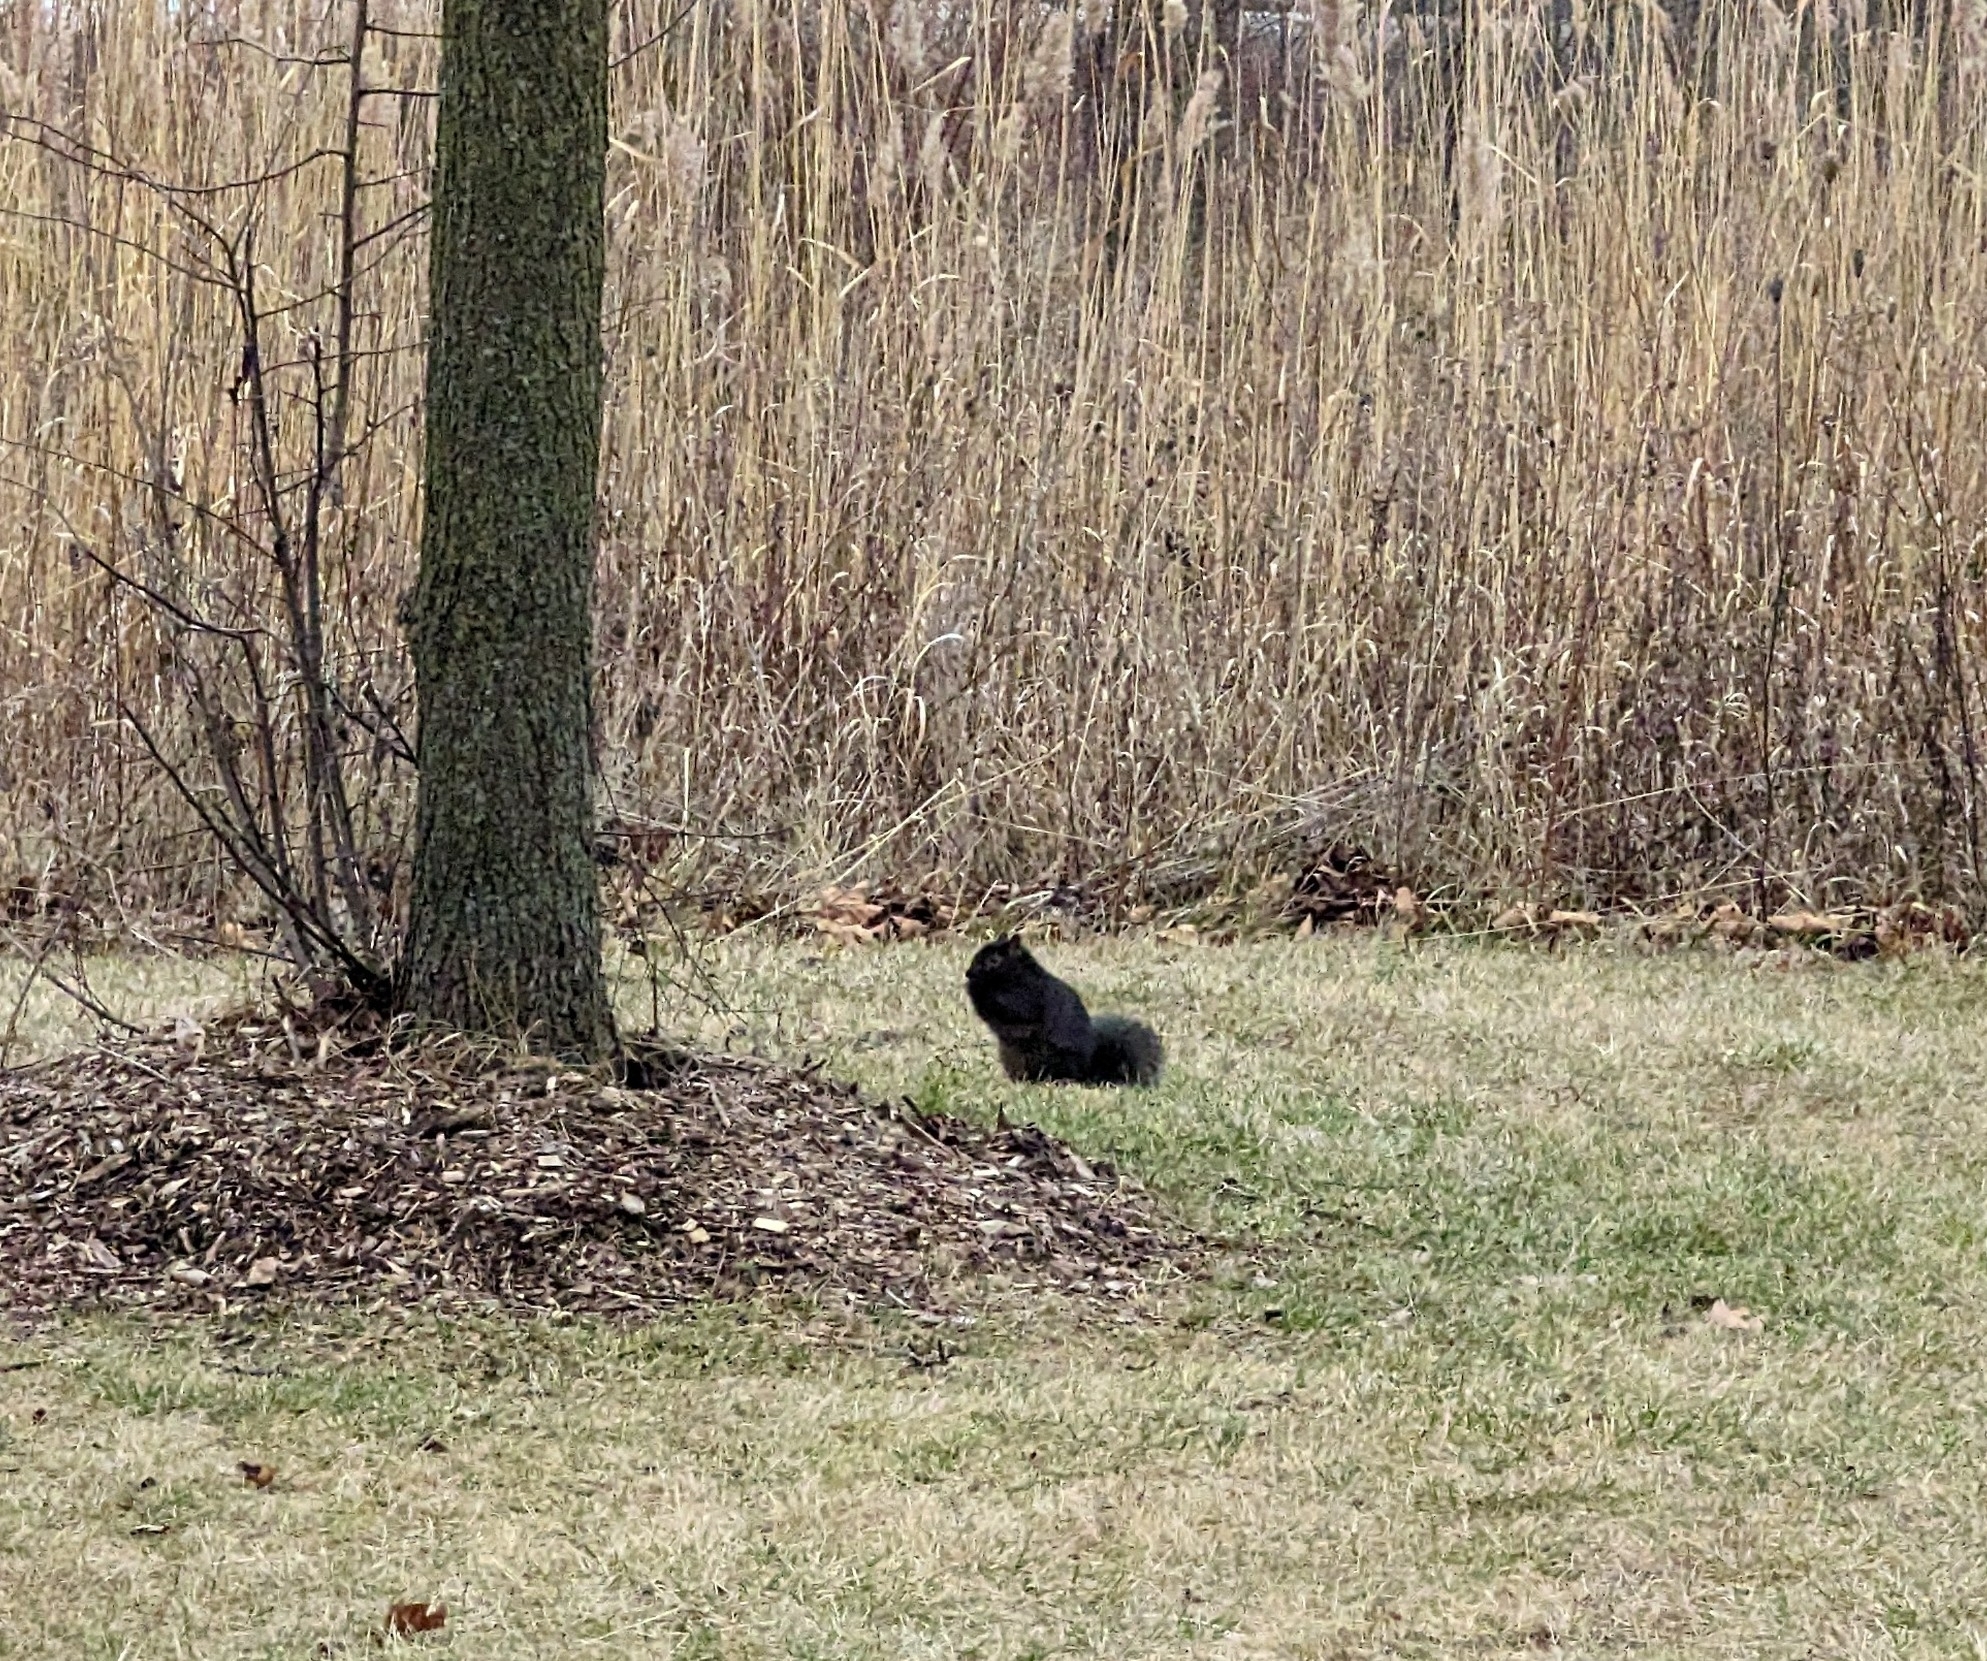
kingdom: Animalia
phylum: Chordata
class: Mammalia
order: Rodentia
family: Sciuridae
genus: Sciurus
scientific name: Sciurus carolinensis
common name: Eastern gray squirrel
